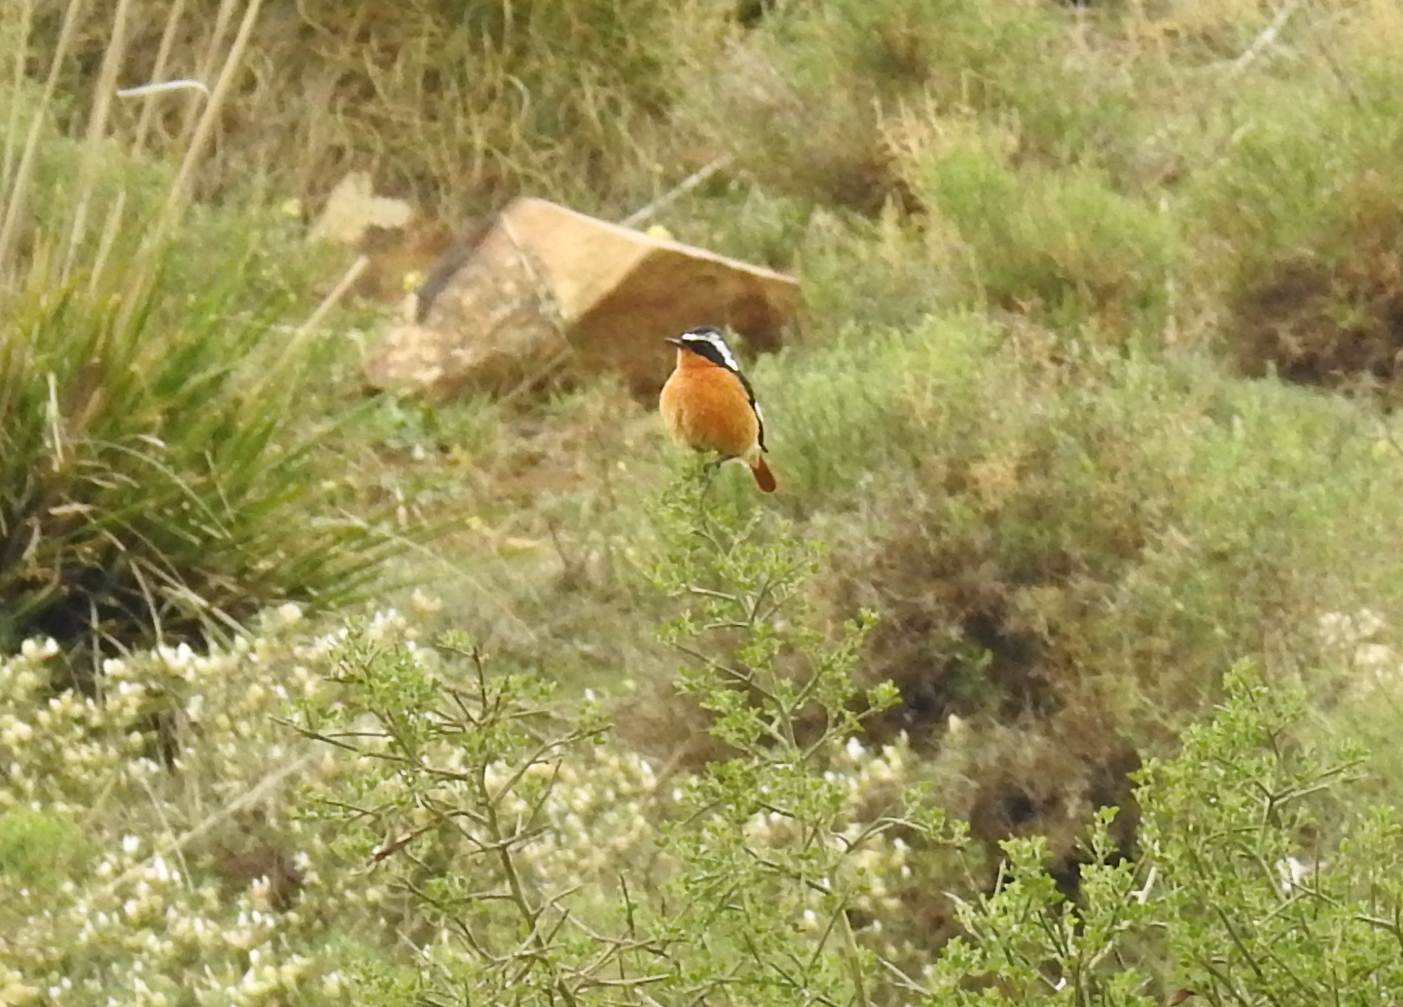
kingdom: Animalia
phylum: Chordata
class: Aves
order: Passeriformes
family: Muscicapidae
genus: Phoenicurus
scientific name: Phoenicurus moussieri
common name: Moussier's redstart
